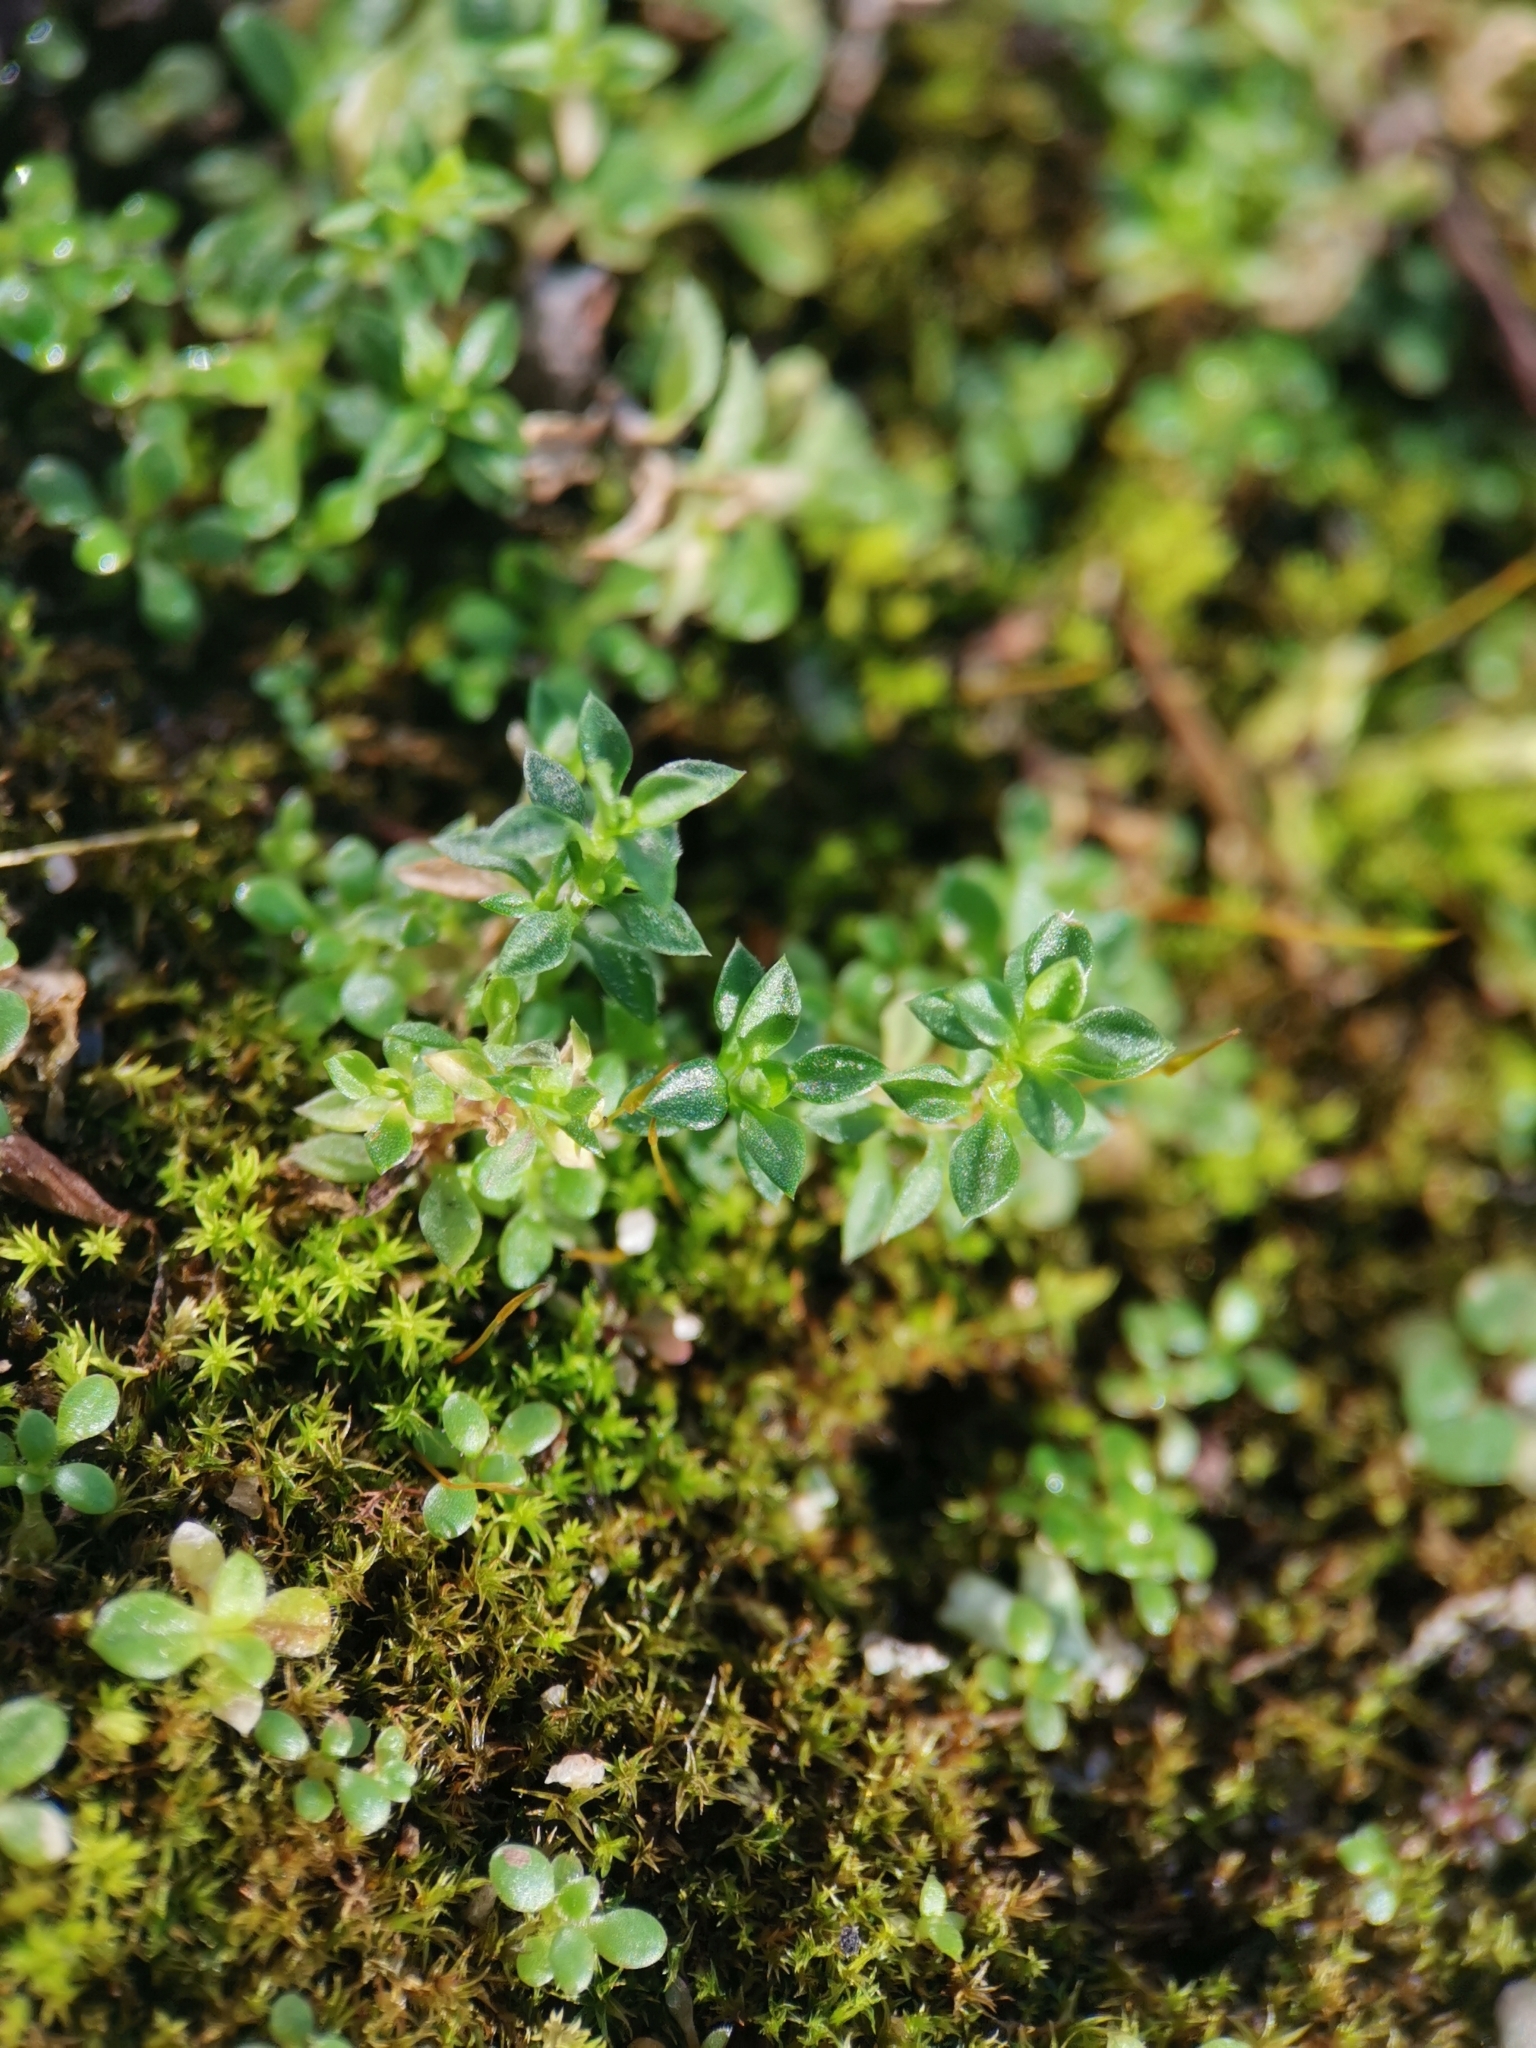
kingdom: Plantae
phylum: Tracheophyta
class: Magnoliopsida
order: Caryophyllales
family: Caryophyllaceae
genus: Arenaria
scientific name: Arenaria serpyllifolia
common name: Thyme-leaved sandwort
